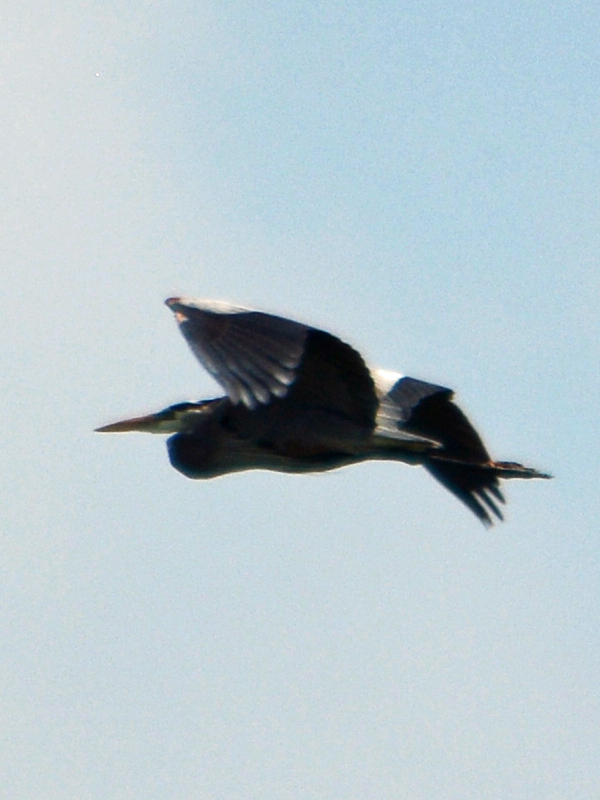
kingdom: Animalia
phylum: Chordata
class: Aves
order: Pelecaniformes
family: Ardeidae
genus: Ardea
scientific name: Ardea herodias
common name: Great blue heron
